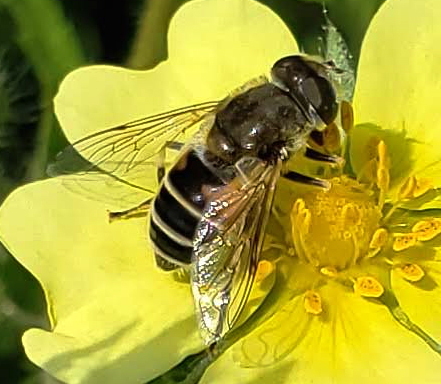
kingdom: Animalia
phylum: Arthropoda
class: Insecta
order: Diptera
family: Syrphidae
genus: Eristalis
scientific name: Eristalis arbustorum
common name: Hover fly
